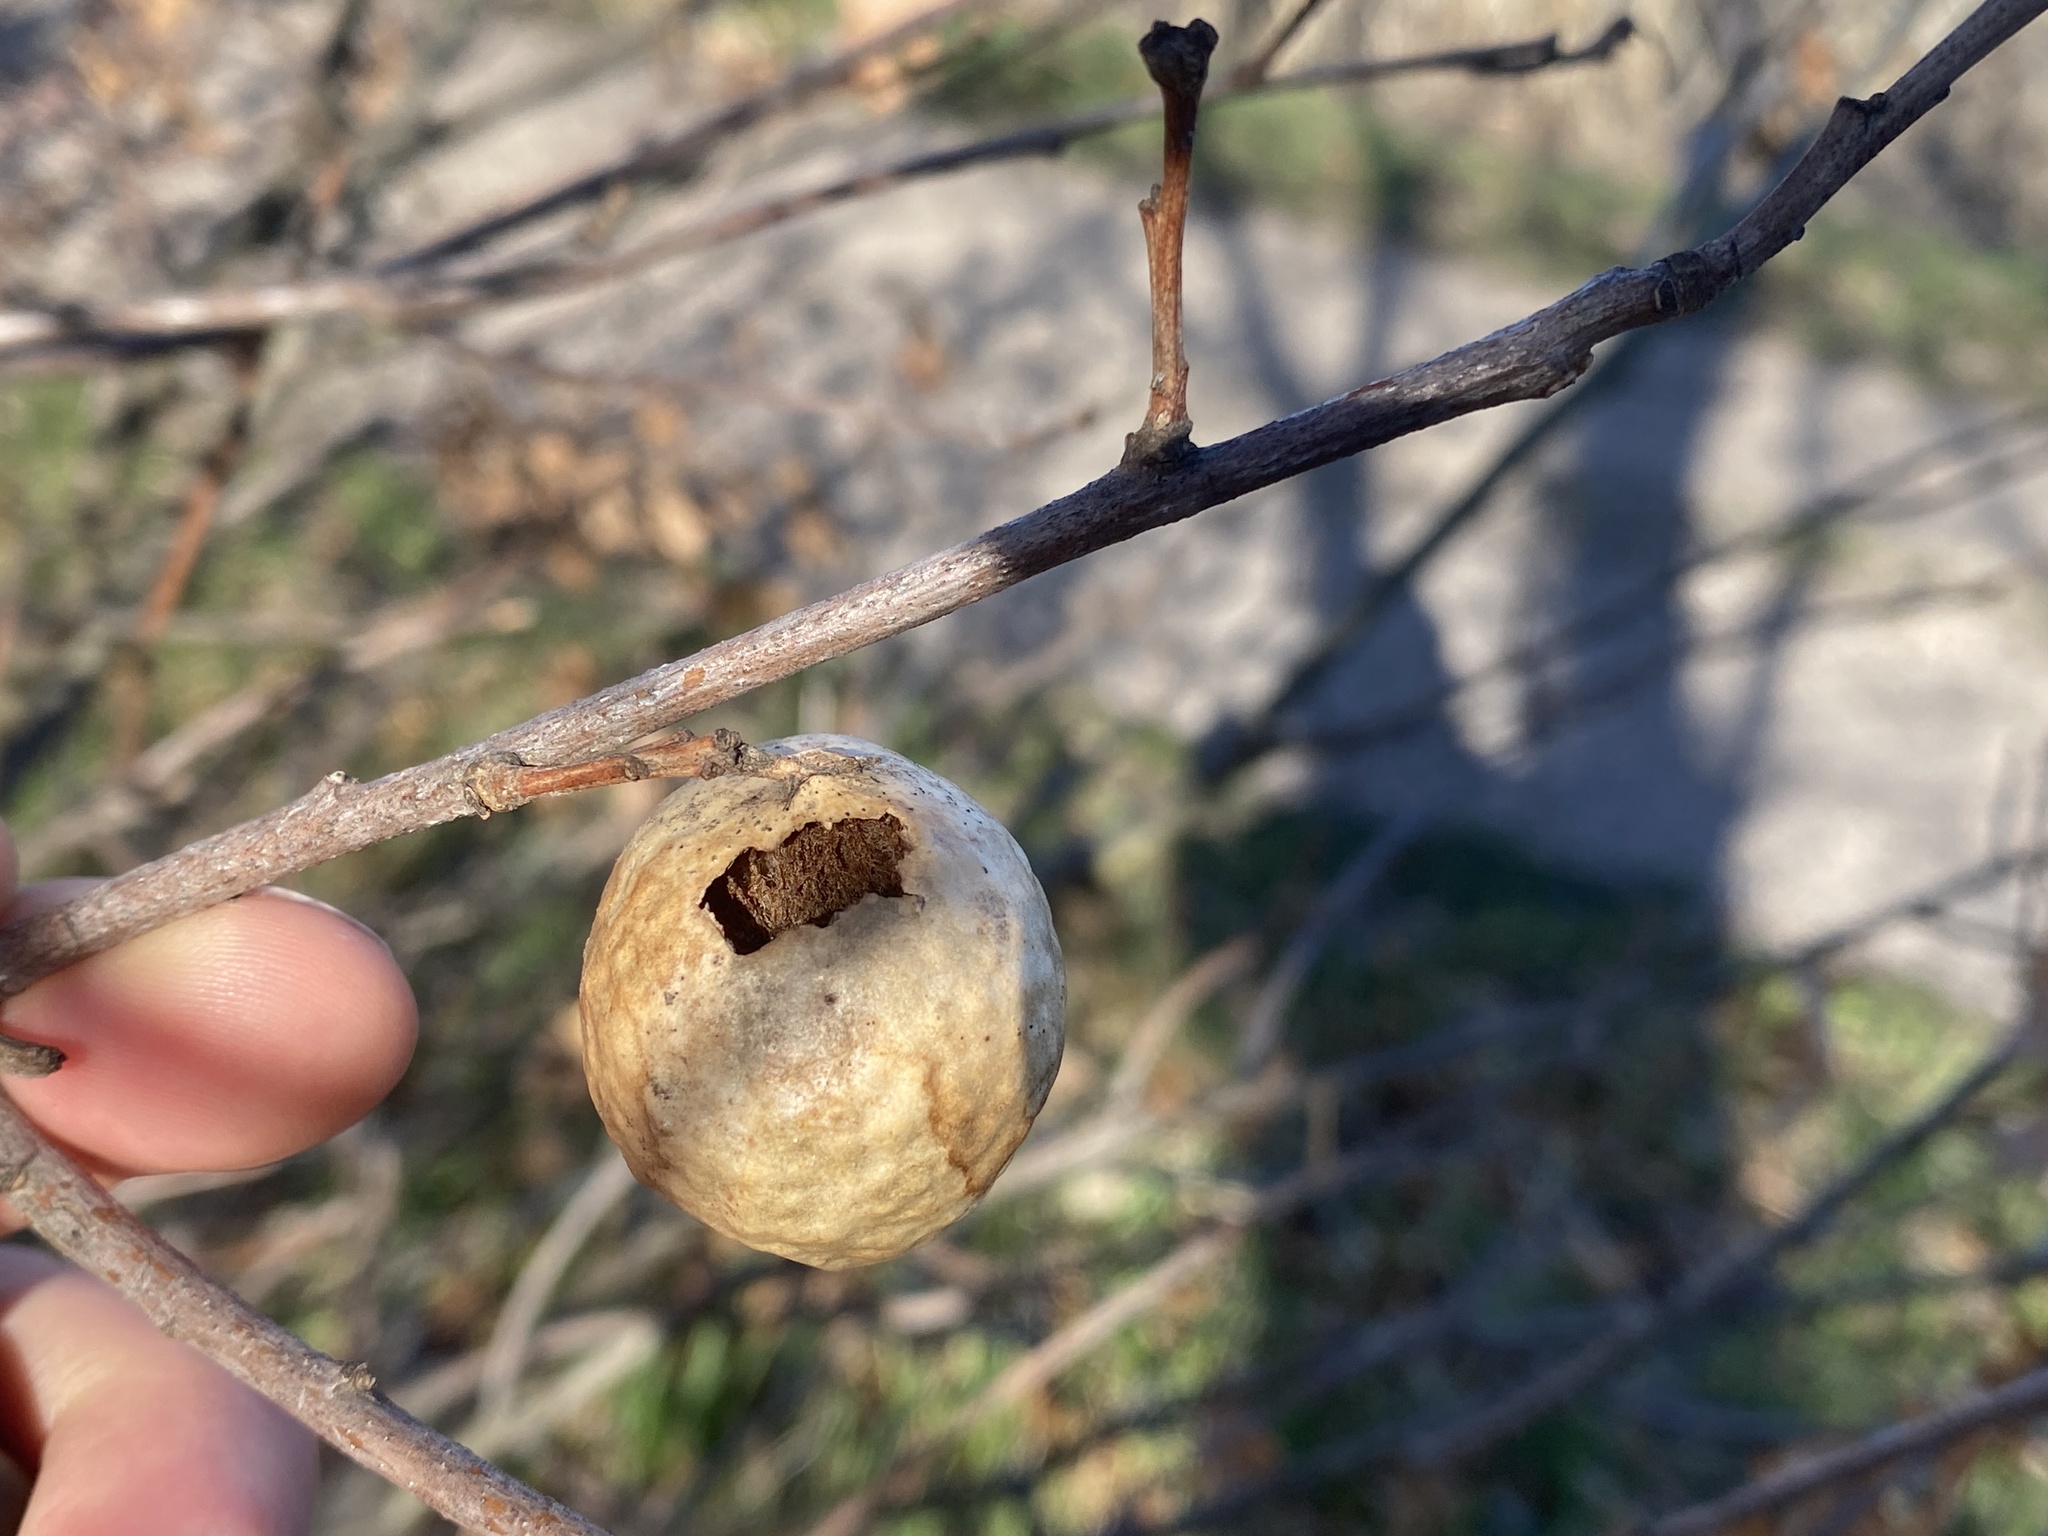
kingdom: Animalia
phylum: Arthropoda
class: Insecta
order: Hymenoptera
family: Cynipidae
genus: Amphibolips
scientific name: Amphibolips
